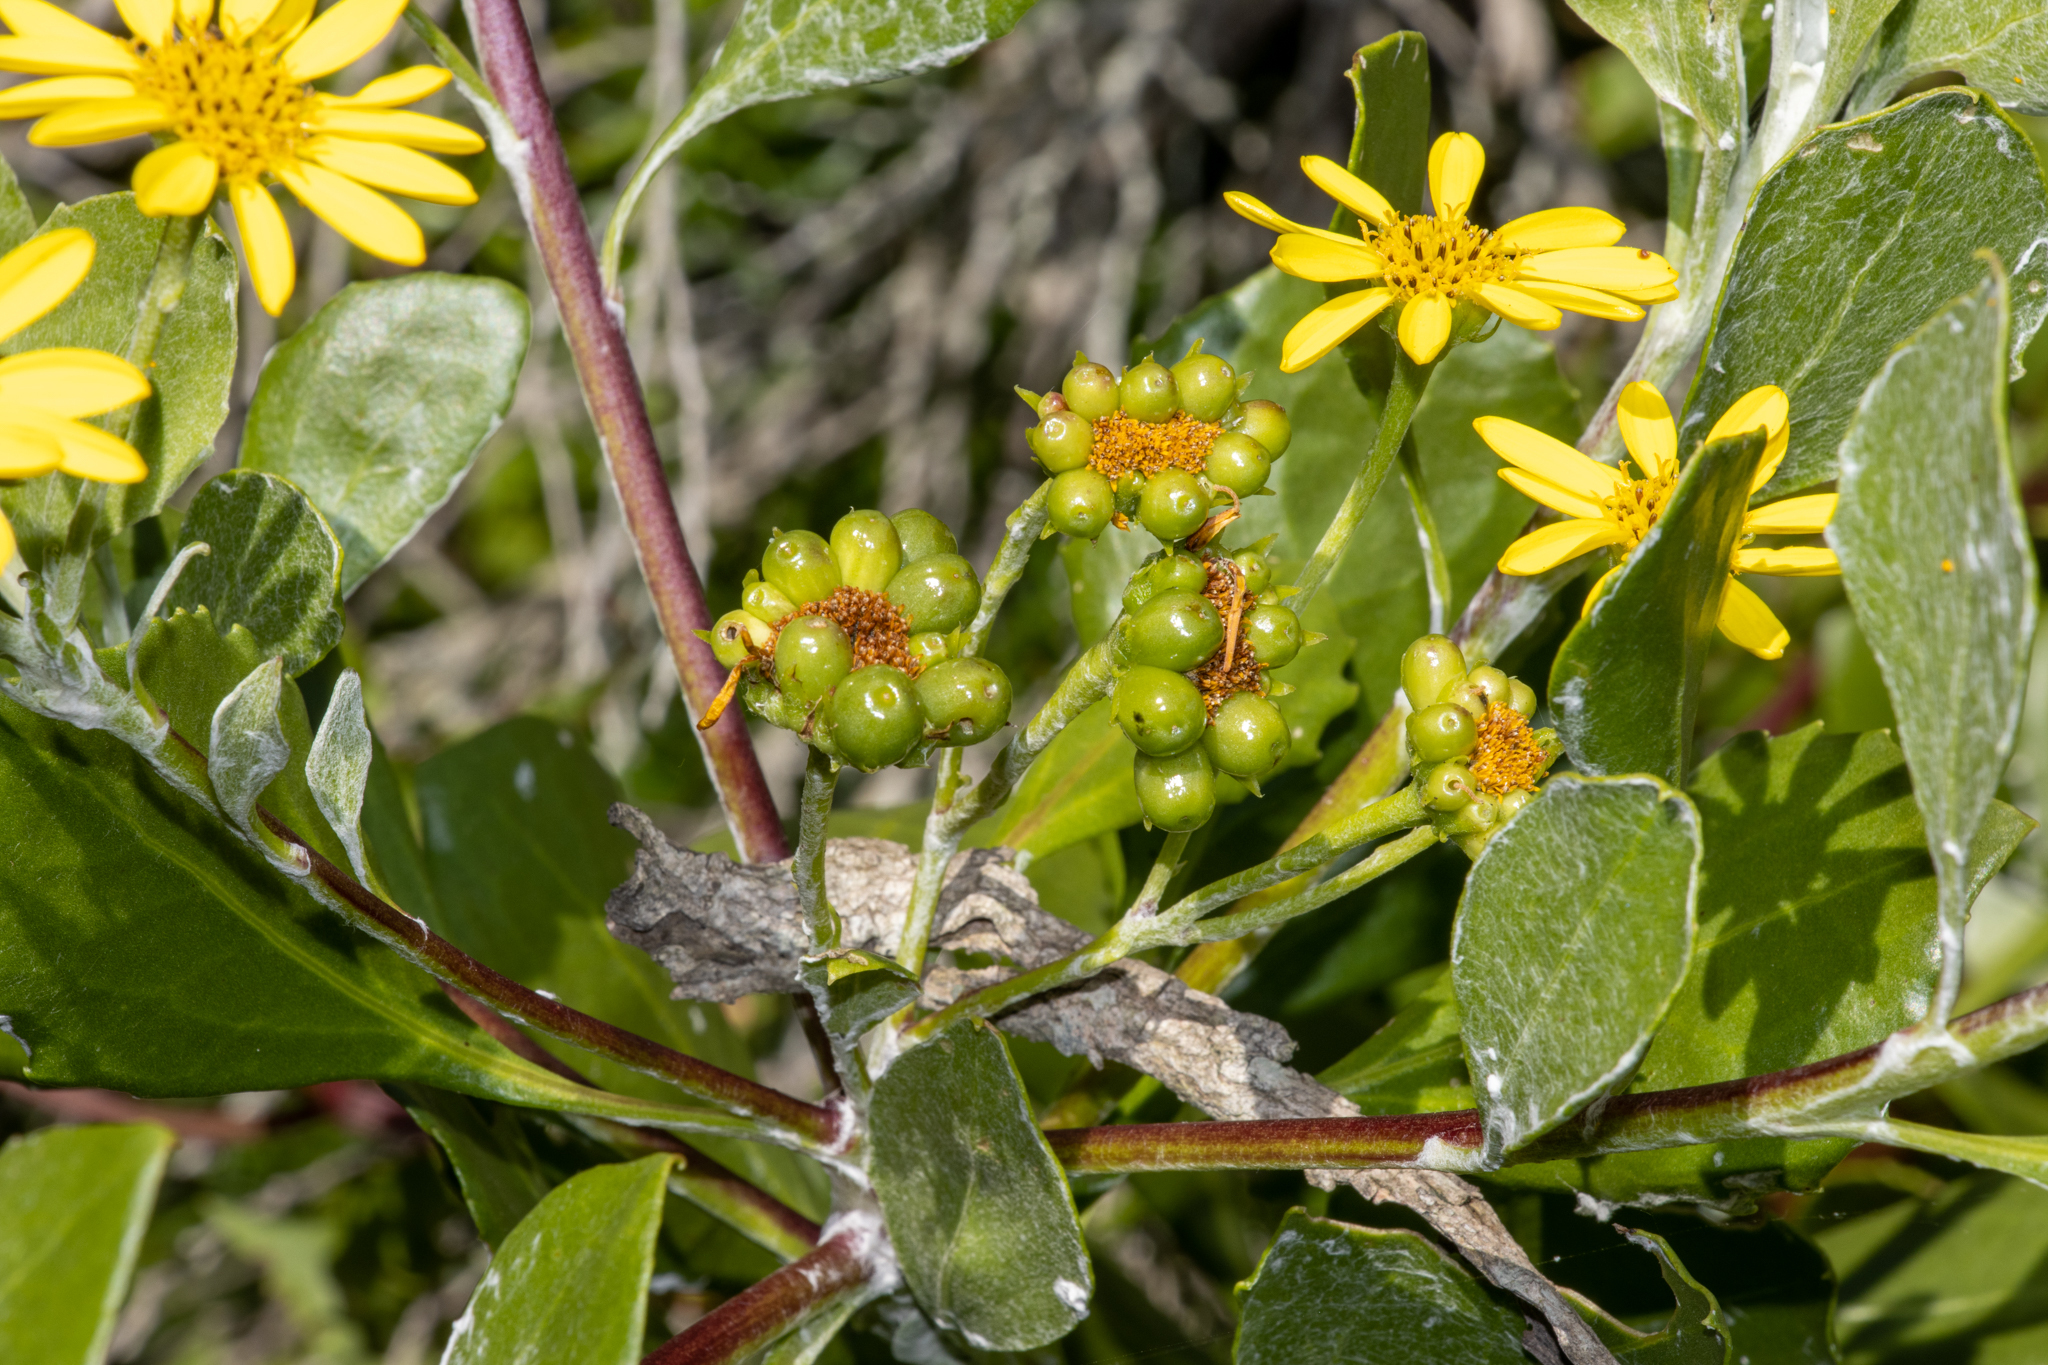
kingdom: Plantae
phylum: Tracheophyta
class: Magnoliopsida
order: Asterales
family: Asteraceae
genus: Osteospermum
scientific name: Osteospermum moniliferum
